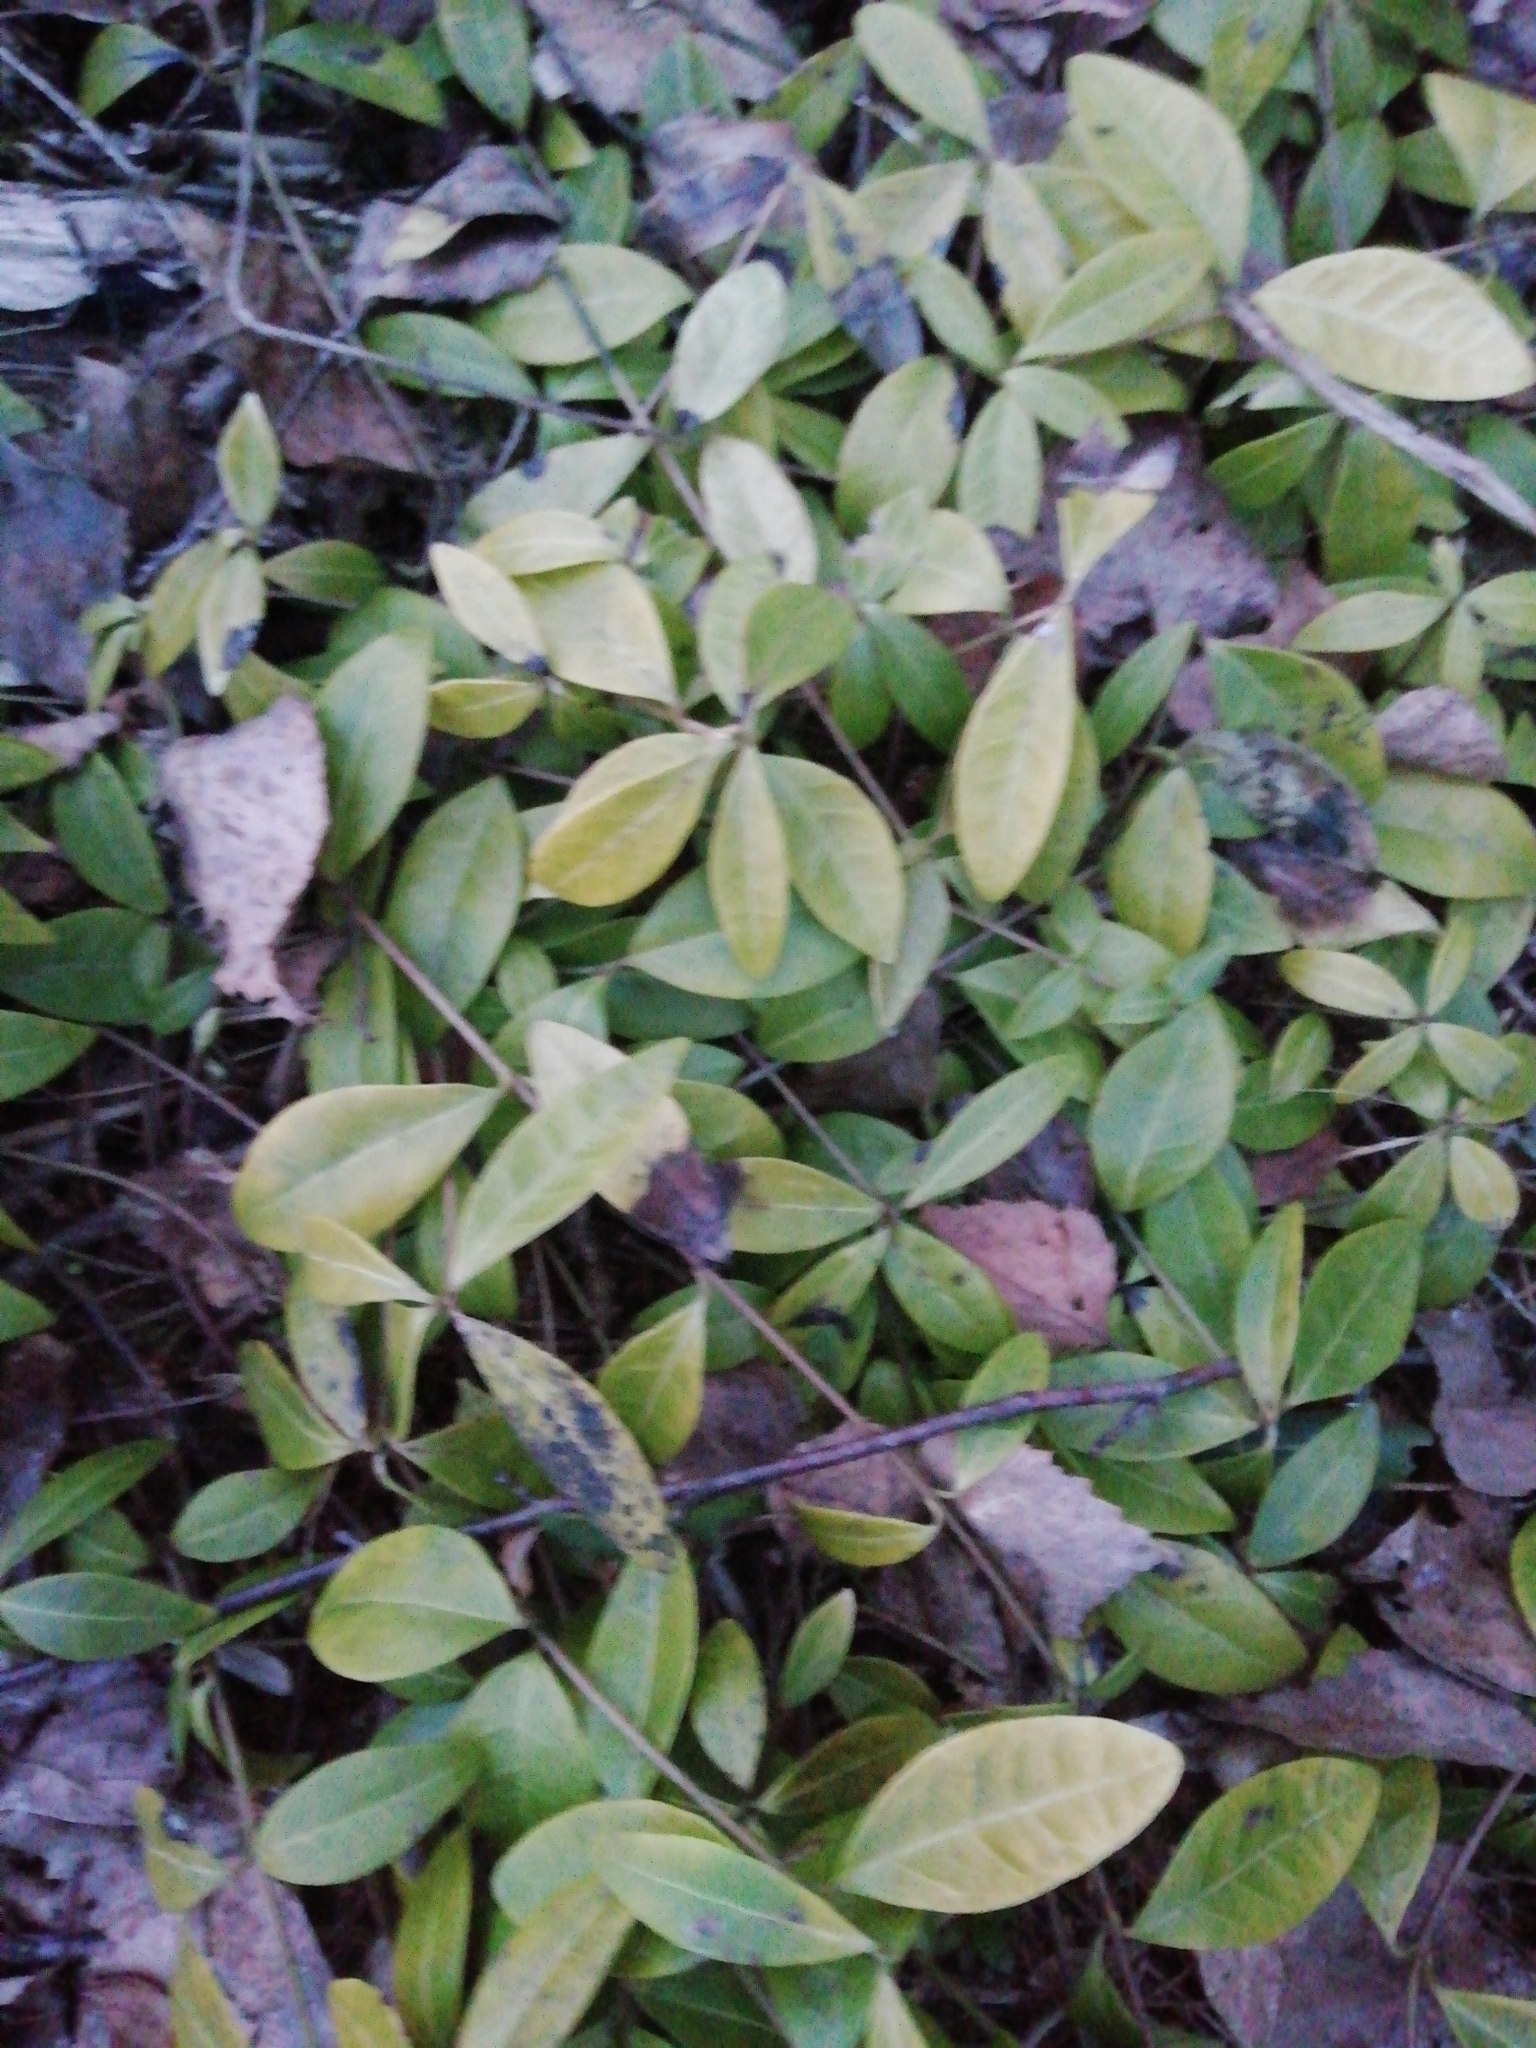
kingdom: Plantae
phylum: Tracheophyta
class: Magnoliopsida
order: Gentianales
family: Apocynaceae
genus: Vinca
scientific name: Vinca minor
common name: Lesser periwinkle
